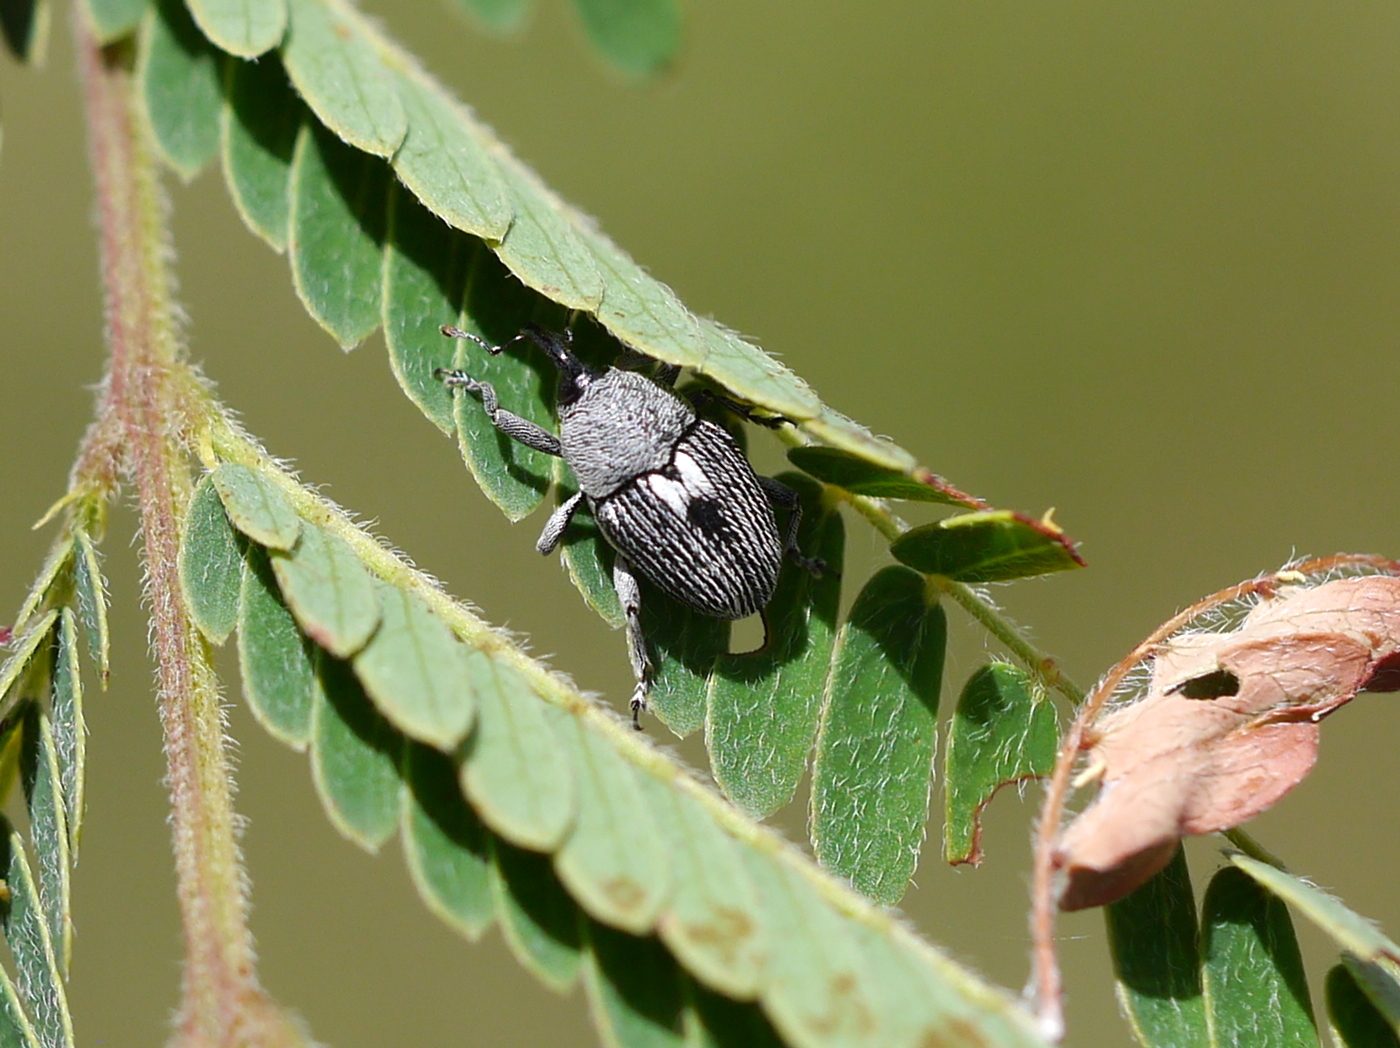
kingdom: Animalia
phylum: Arthropoda
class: Insecta
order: Coleoptera
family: Curculionidae
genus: Geraeus
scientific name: Geraeus
